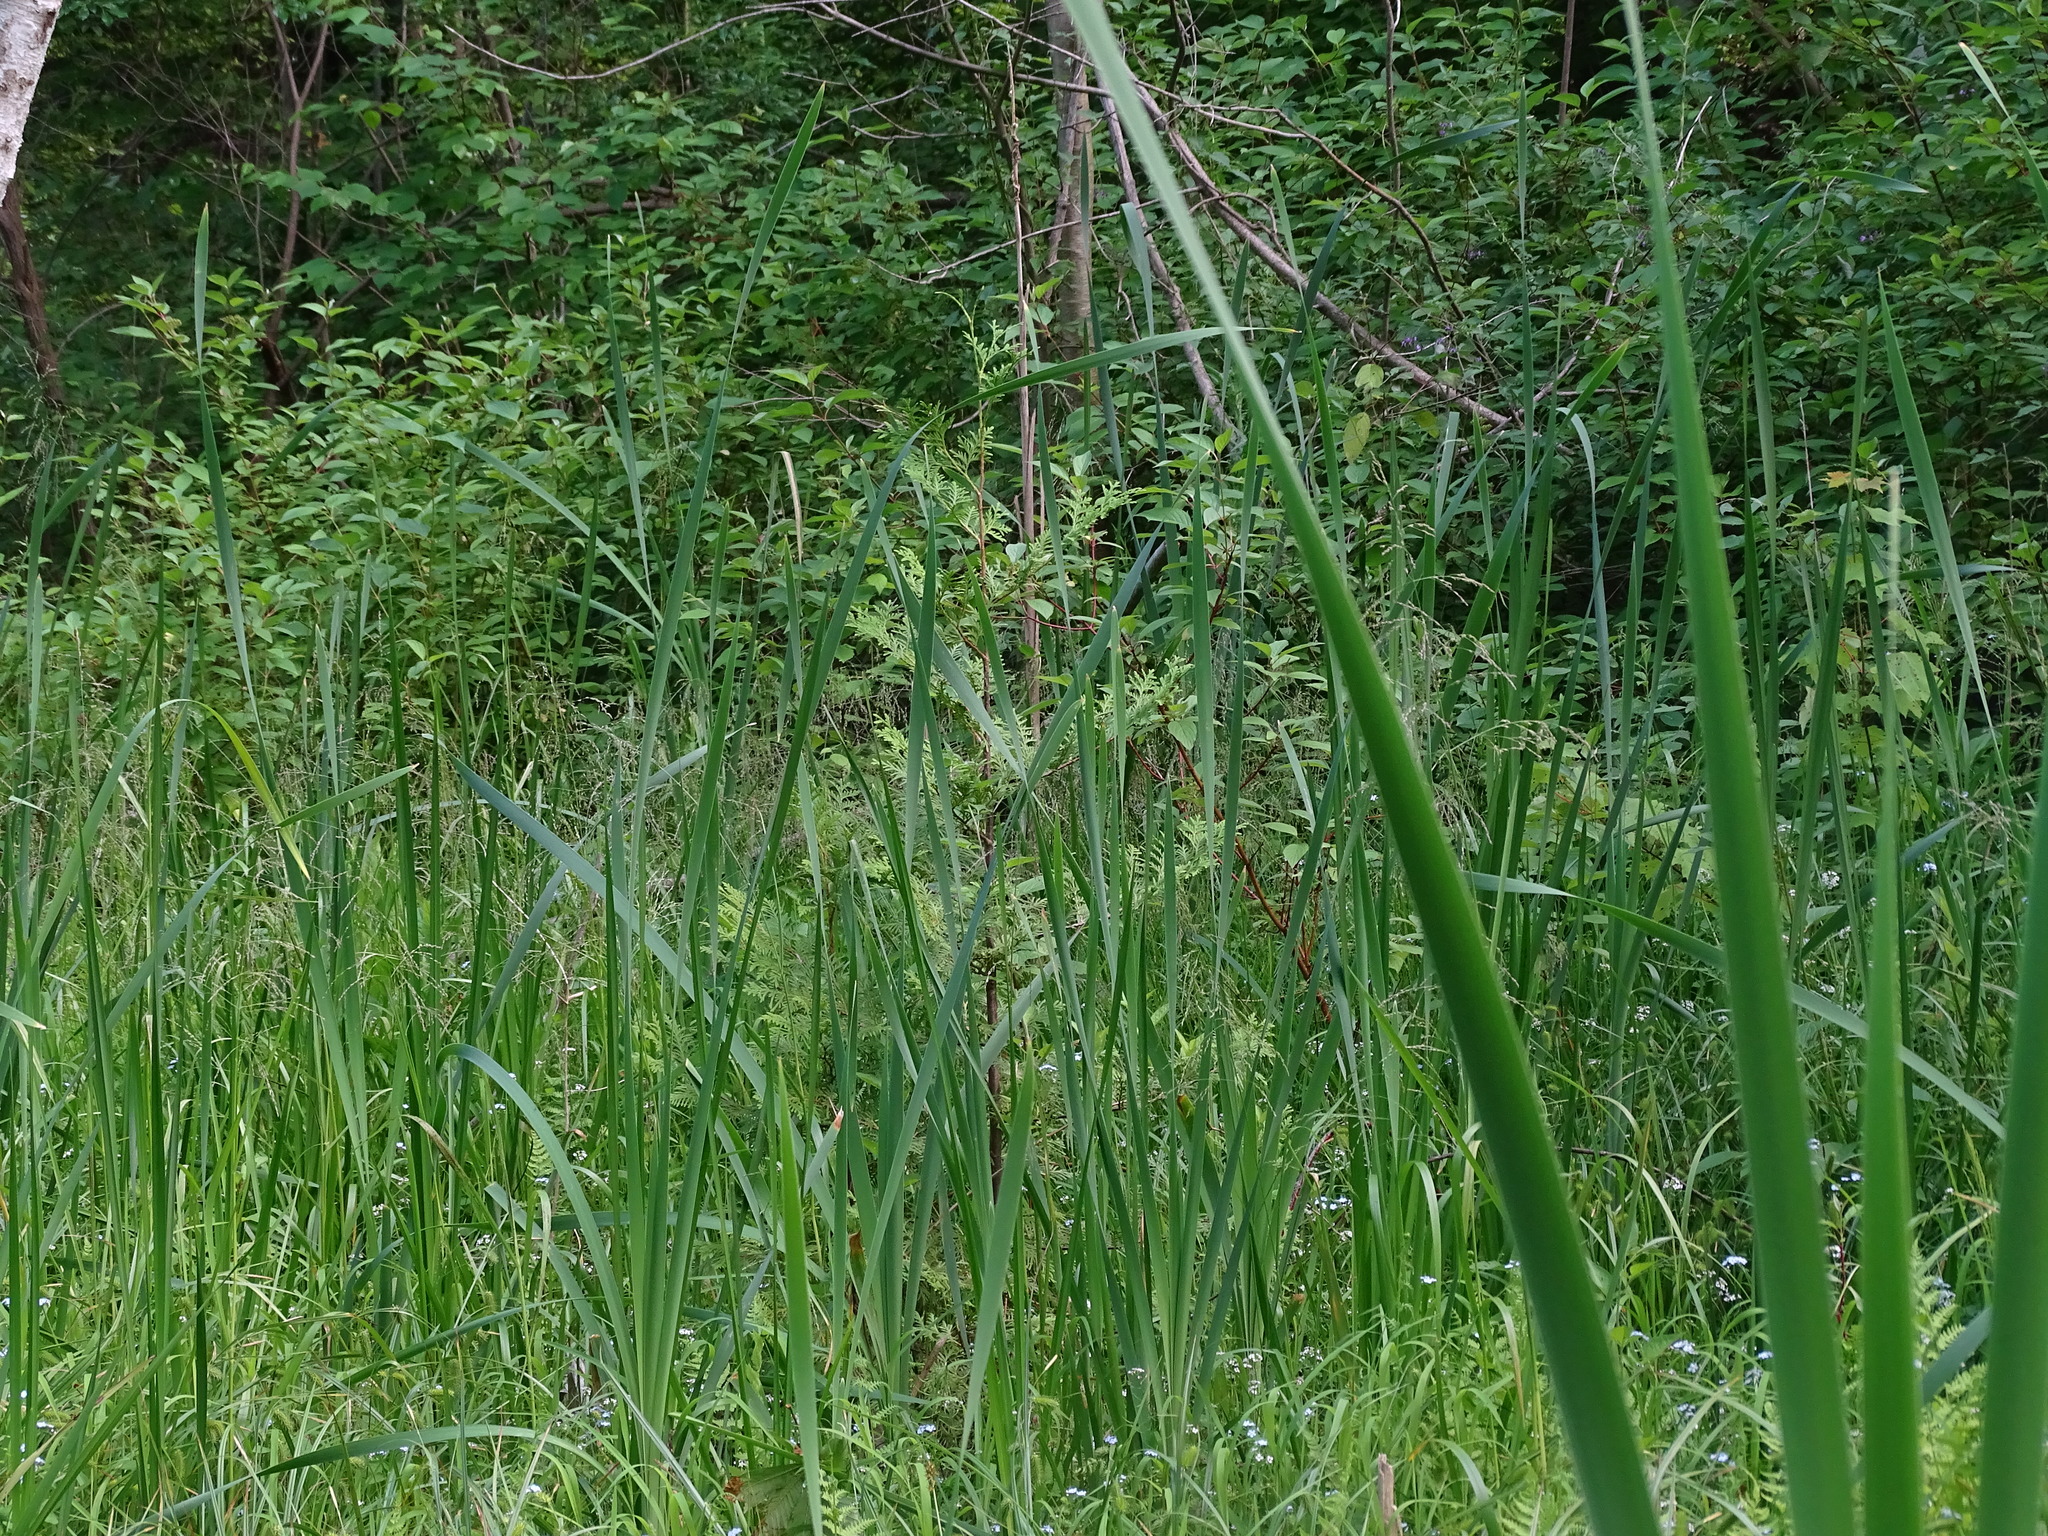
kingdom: Plantae
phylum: Tracheophyta
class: Pinopsida
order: Pinales
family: Cupressaceae
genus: Thuja
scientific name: Thuja occidentalis
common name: Northern white-cedar
